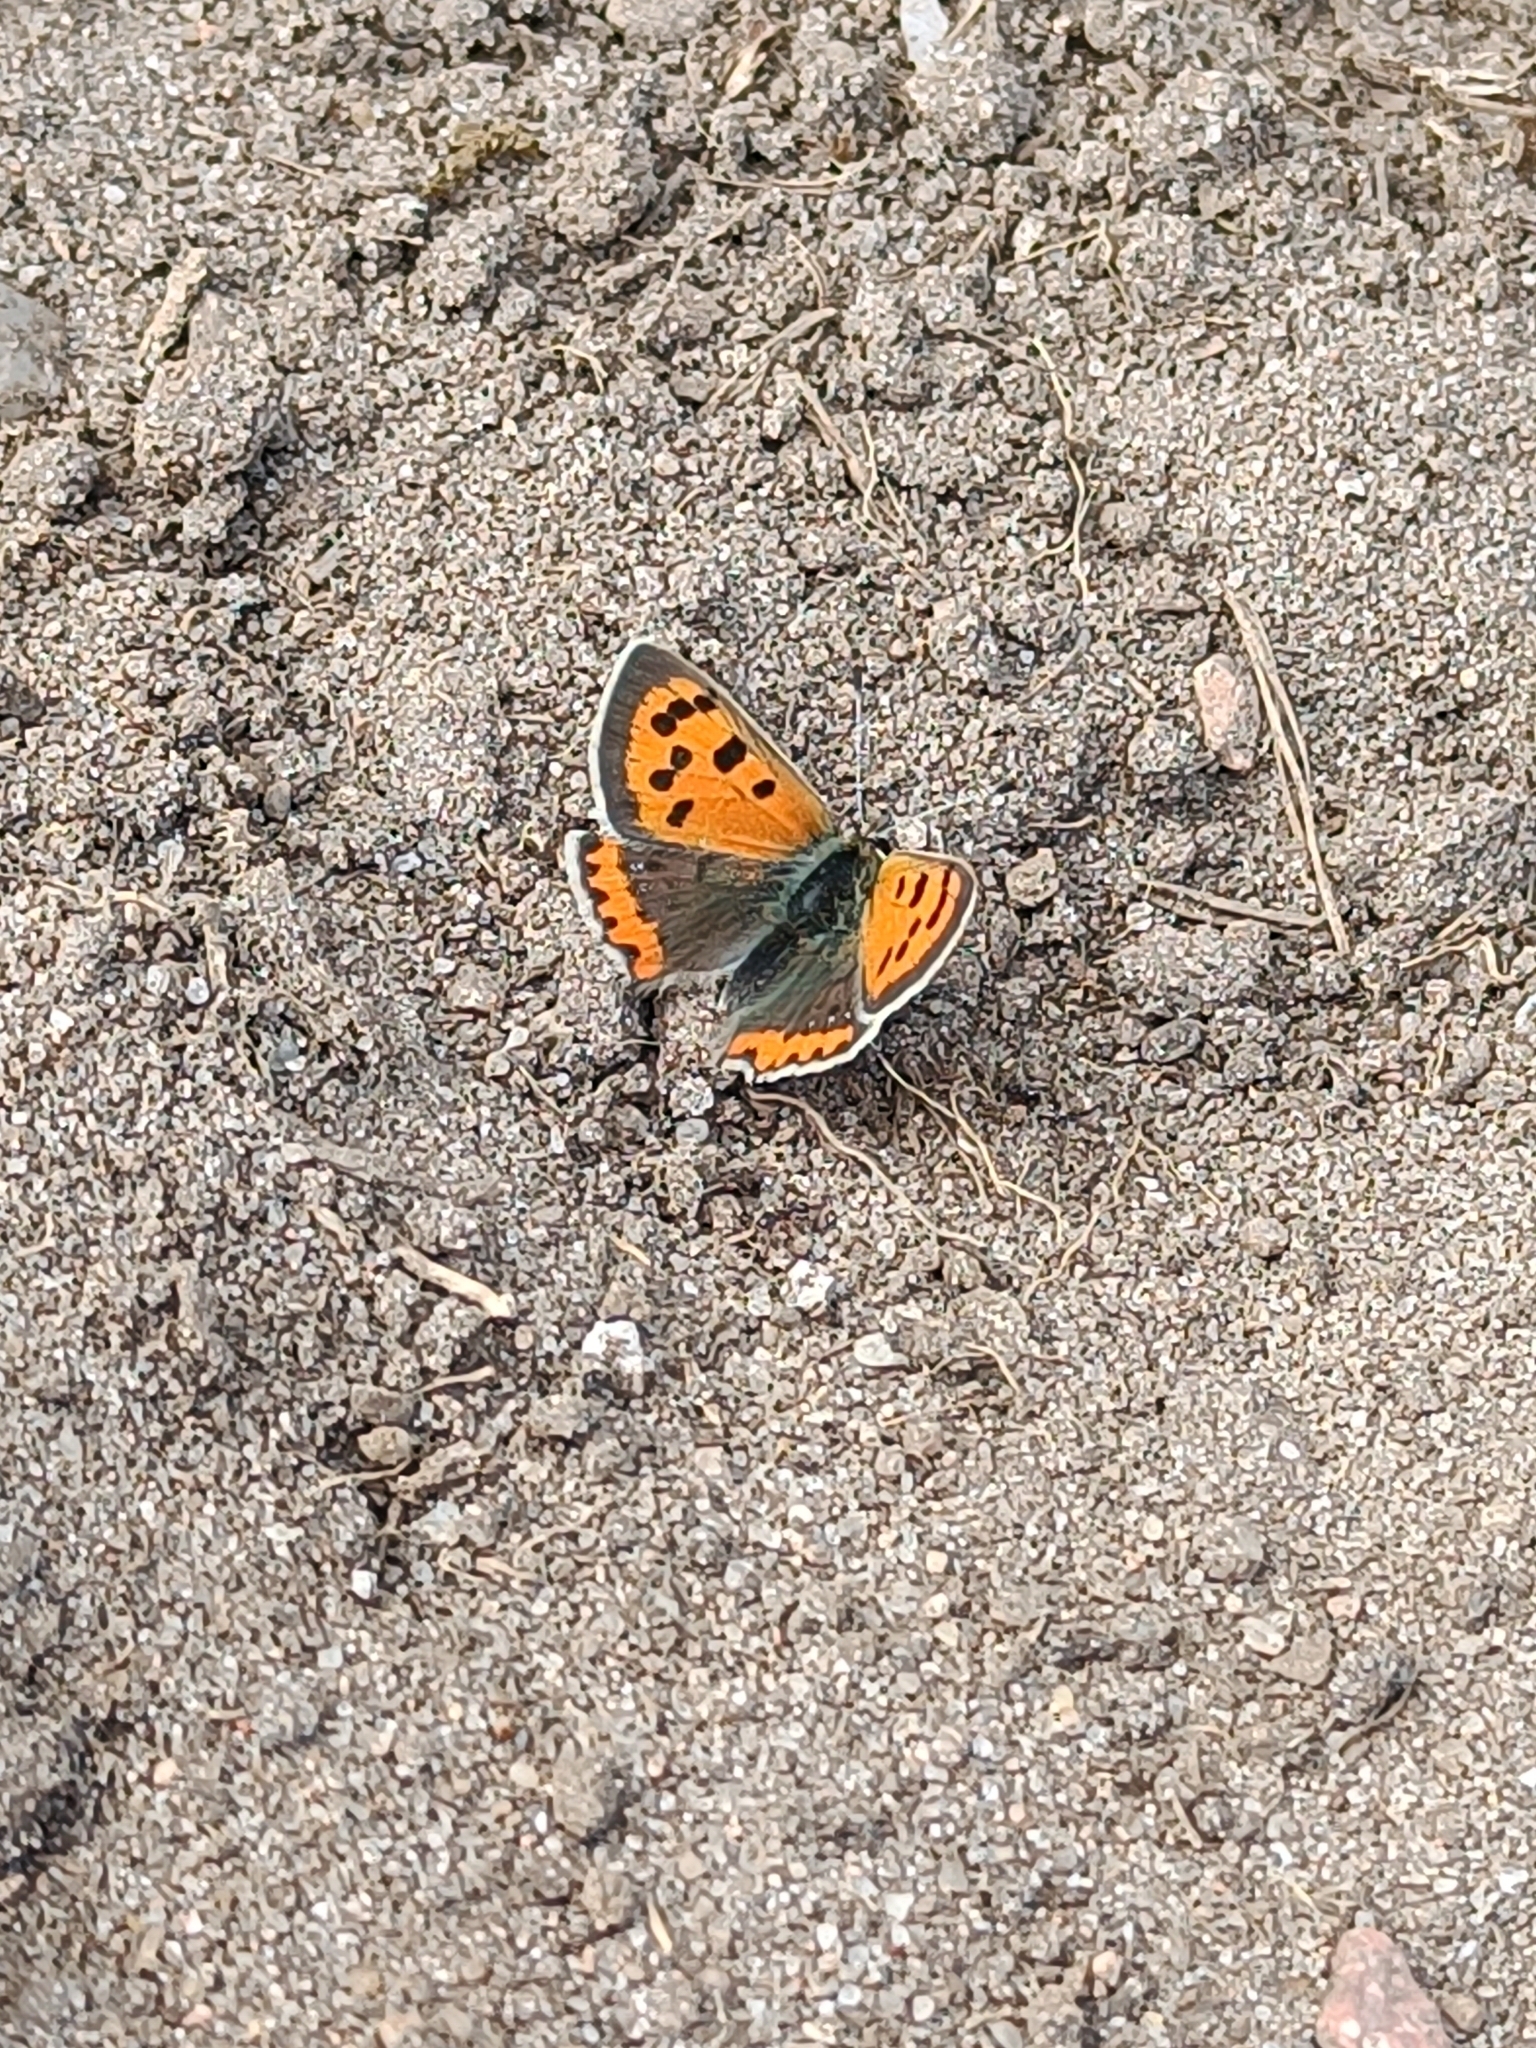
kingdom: Animalia
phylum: Arthropoda
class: Insecta
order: Lepidoptera
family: Lycaenidae
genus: Lycaena
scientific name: Lycaena phlaeas
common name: Small copper
